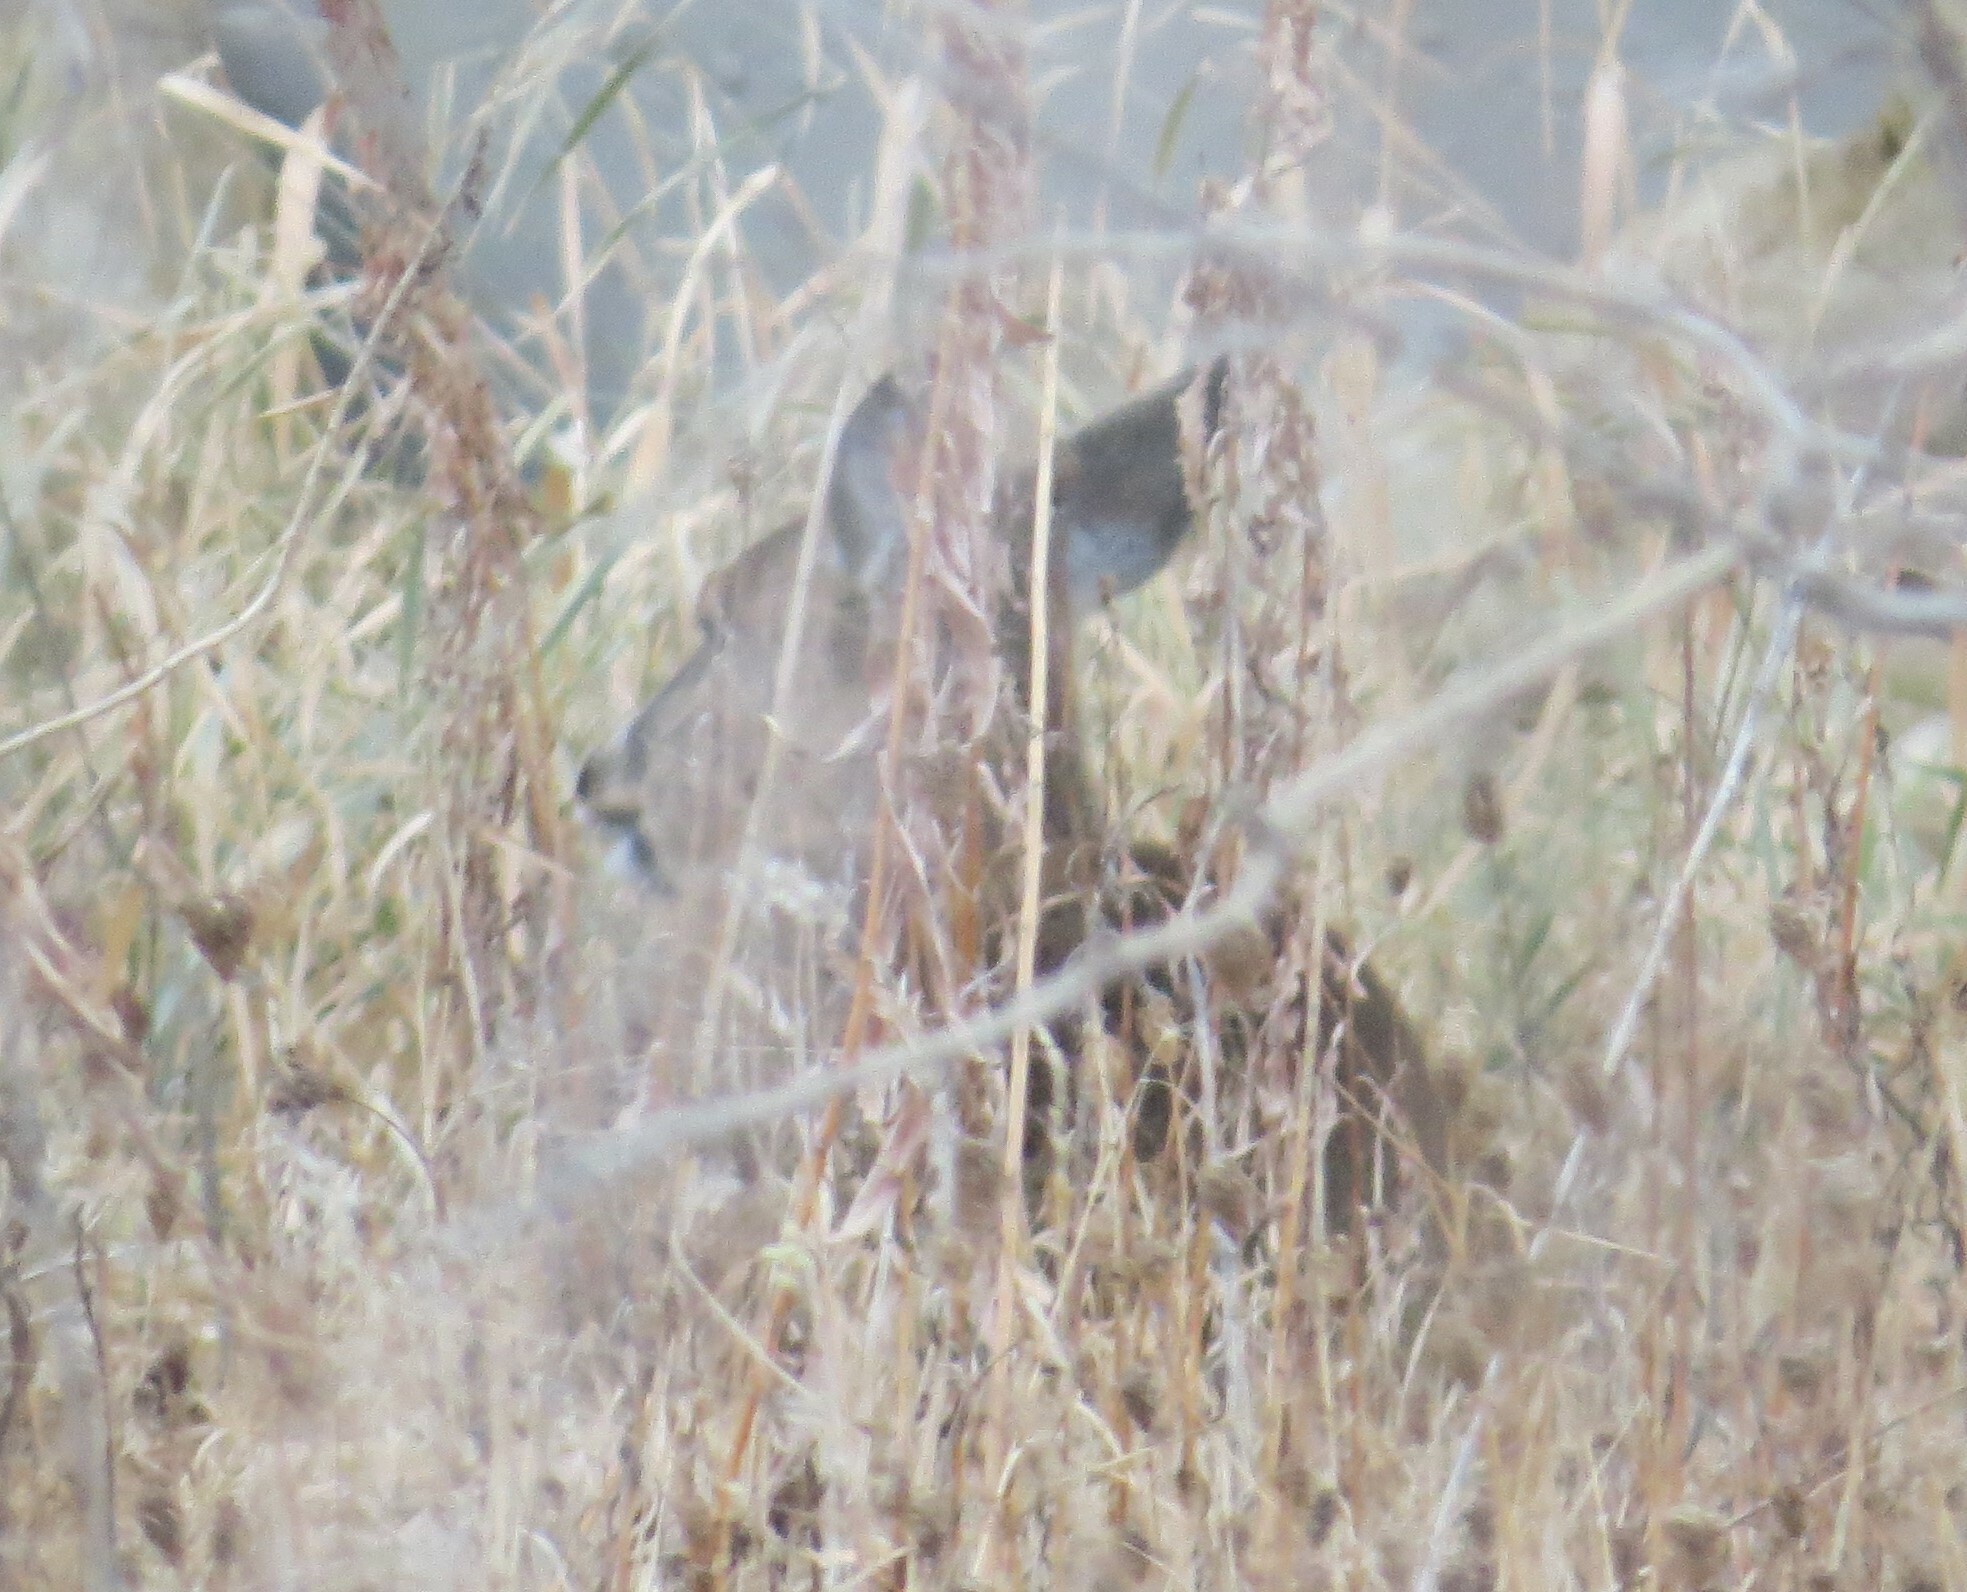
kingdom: Animalia
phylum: Chordata
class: Mammalia
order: Artiodactyla
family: Cervidae
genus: Odocoileus
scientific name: Odocoileus virginianus
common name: White-tailed deer
